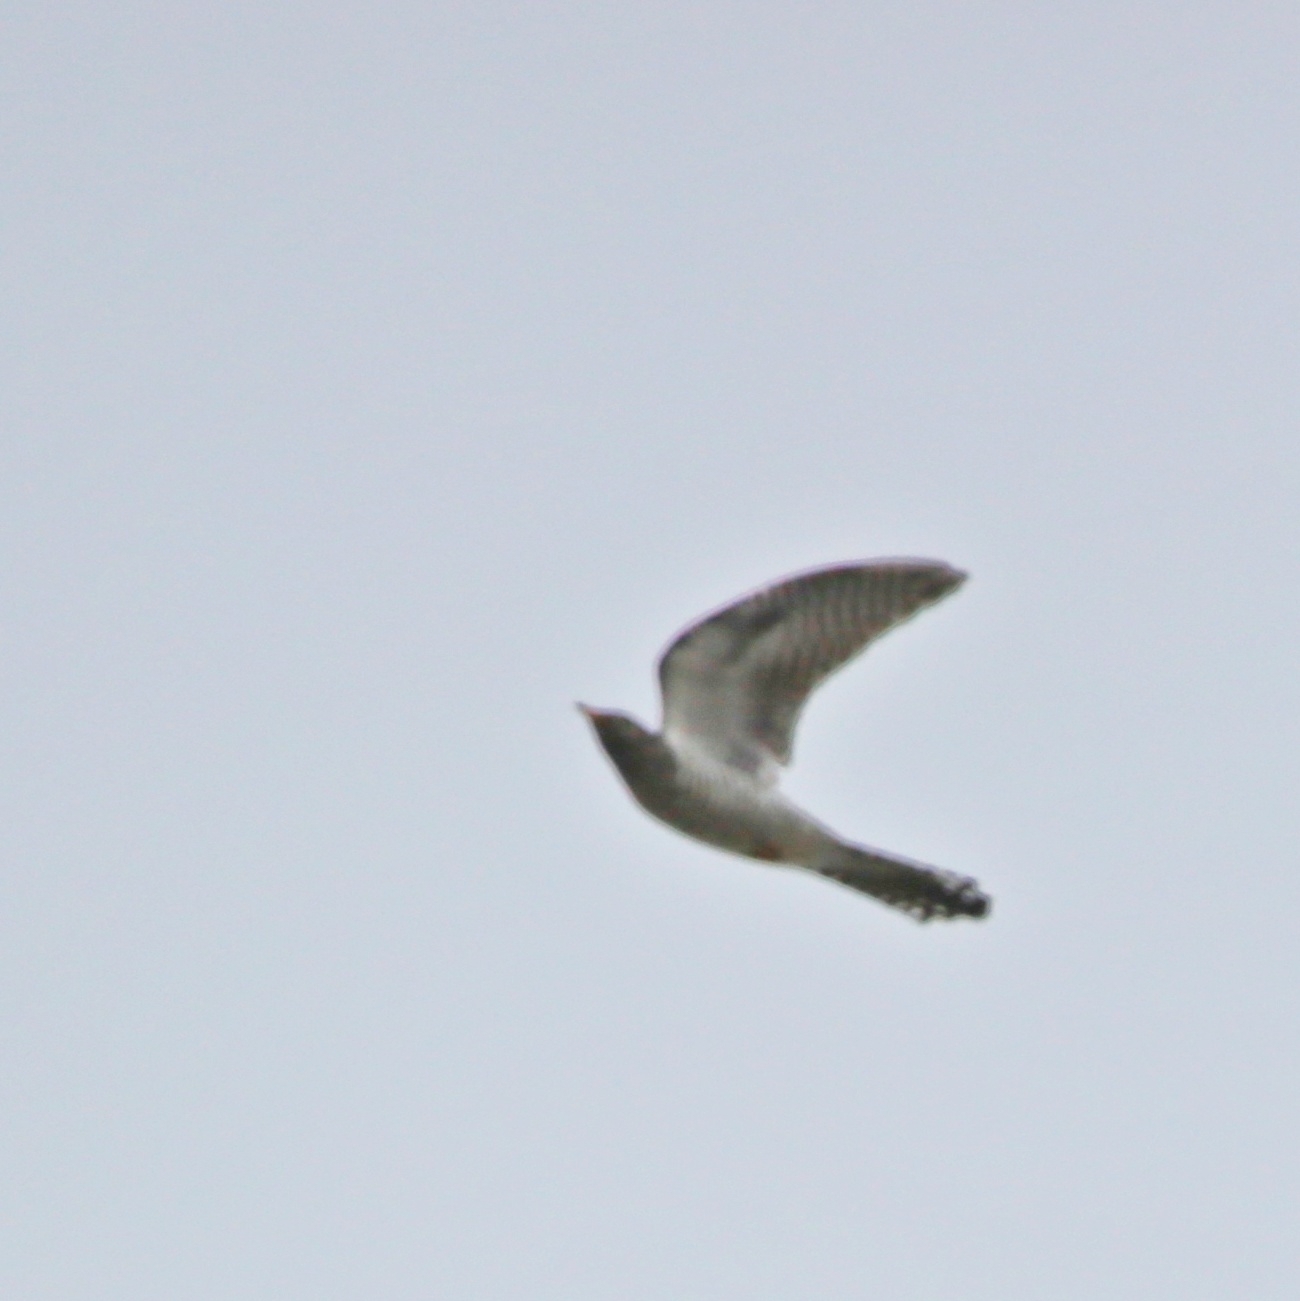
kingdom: Animalia
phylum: Chordata
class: Aves
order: Cuculiformes
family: Cuculidae
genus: Cuculus
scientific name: Cuculus canorus
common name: Common cuckoo
